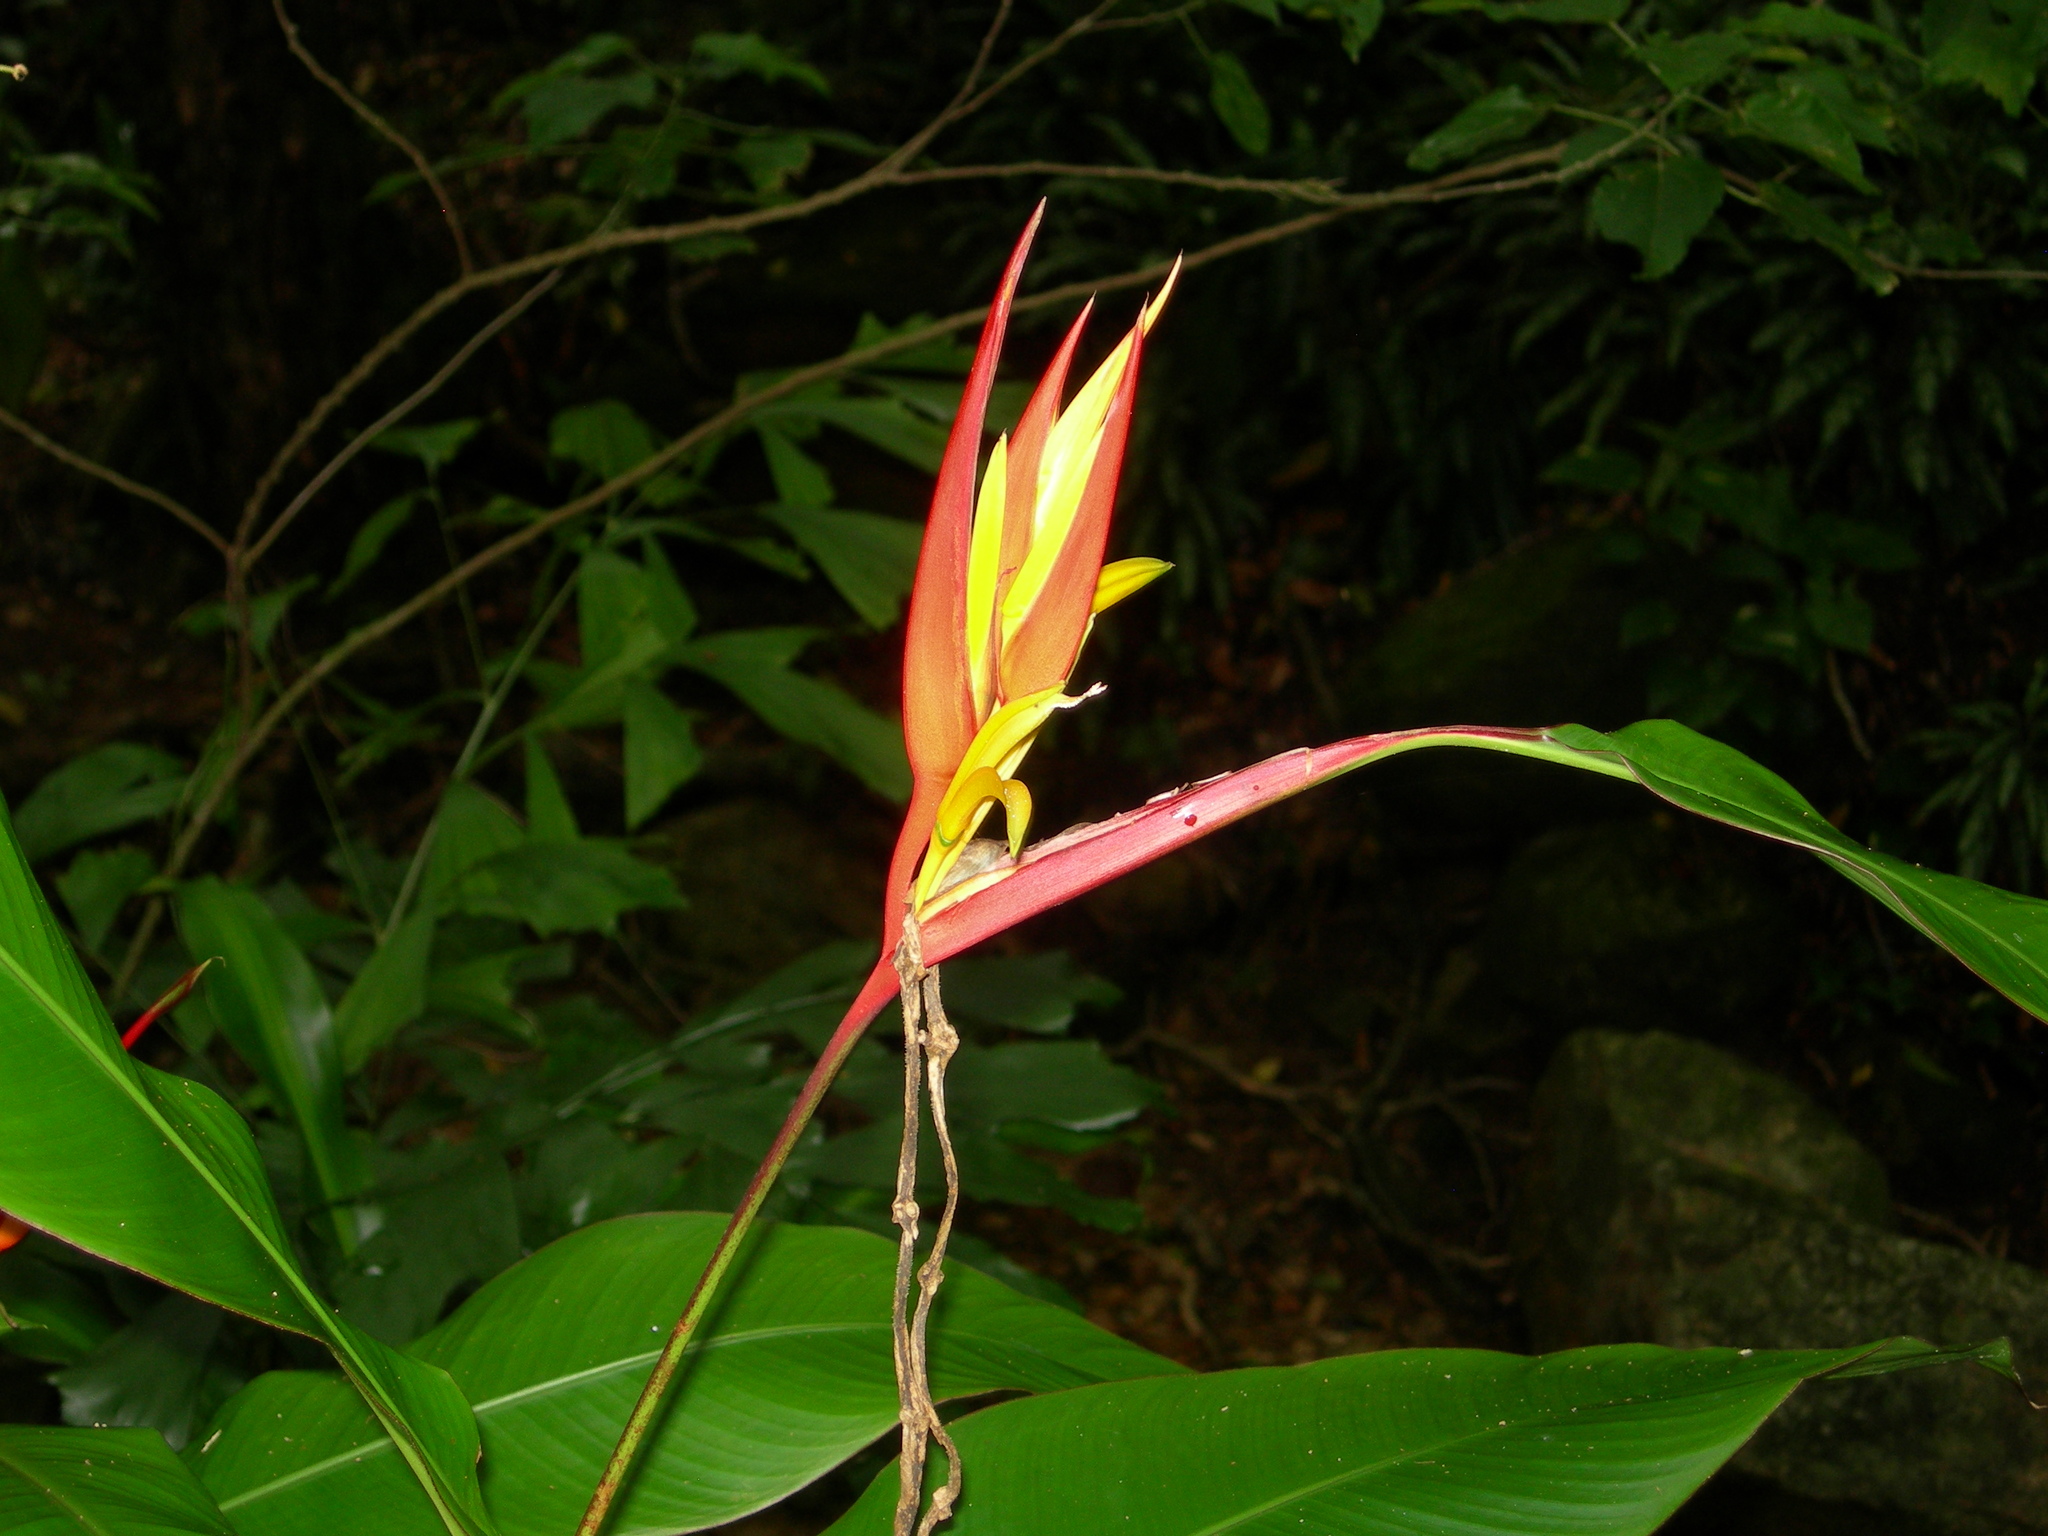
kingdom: Plantae
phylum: Tracheophyta
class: Liliopsida
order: Zingiberales
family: Heliconiaceae
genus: Heliconia
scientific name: Heliconia psittacorum
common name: Parrot's-flower
